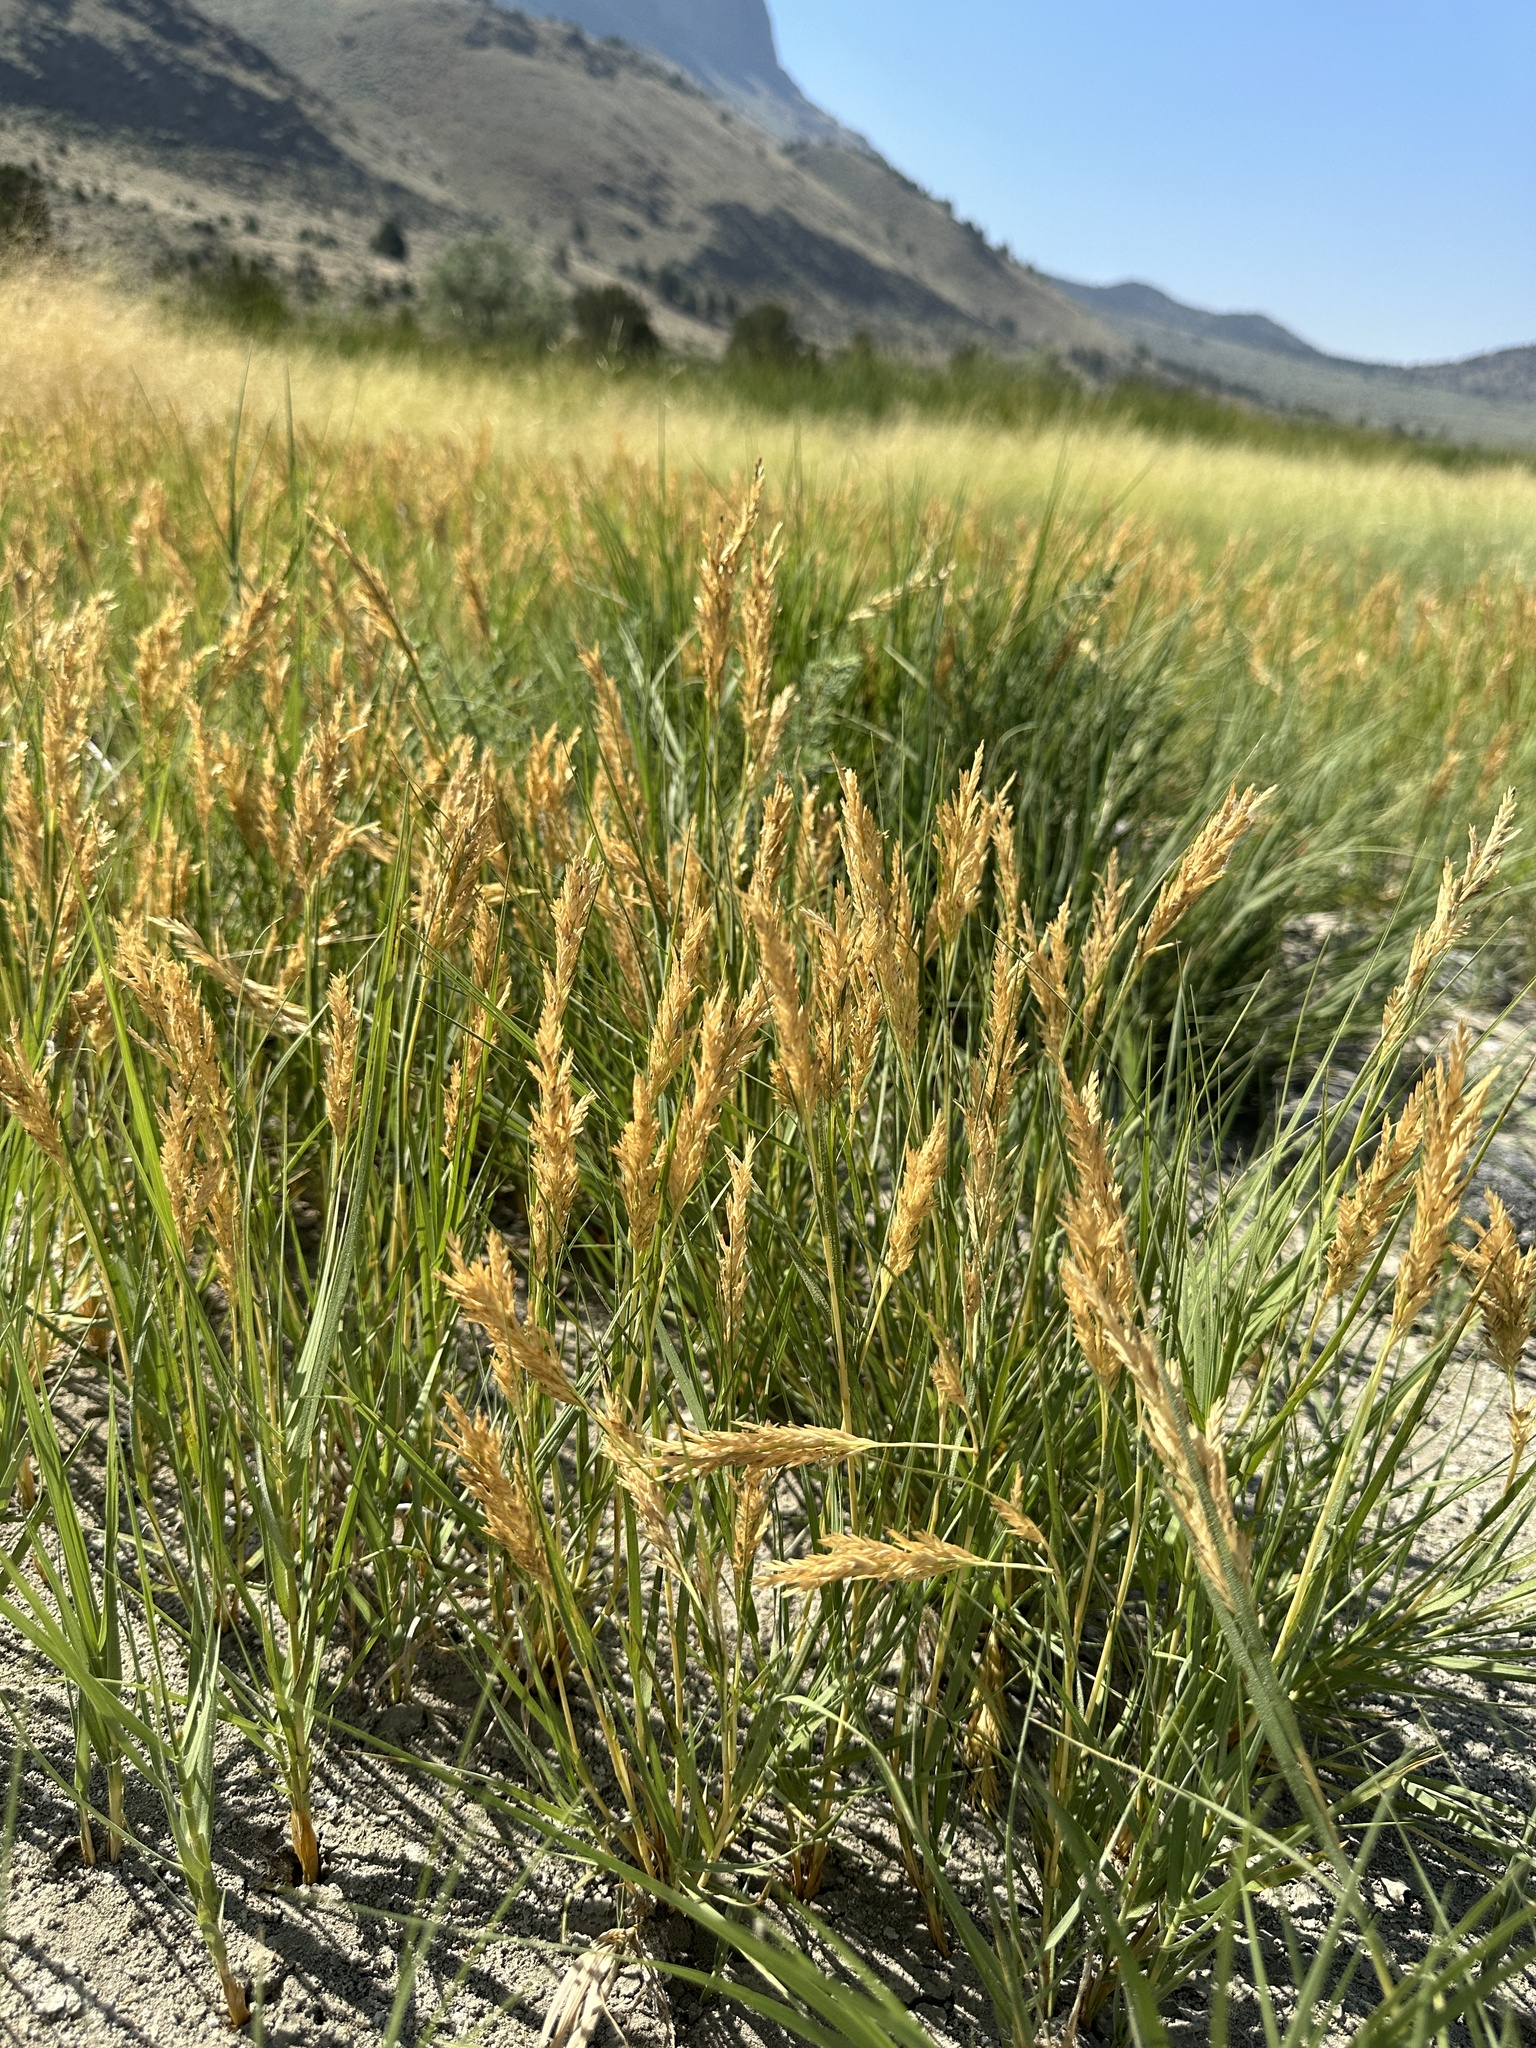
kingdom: Plantae
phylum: Tracheophyta
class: Liliopsida
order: Poales
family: Poaceae
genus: Distichlis
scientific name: Distichlis spicata
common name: Saltgrass
